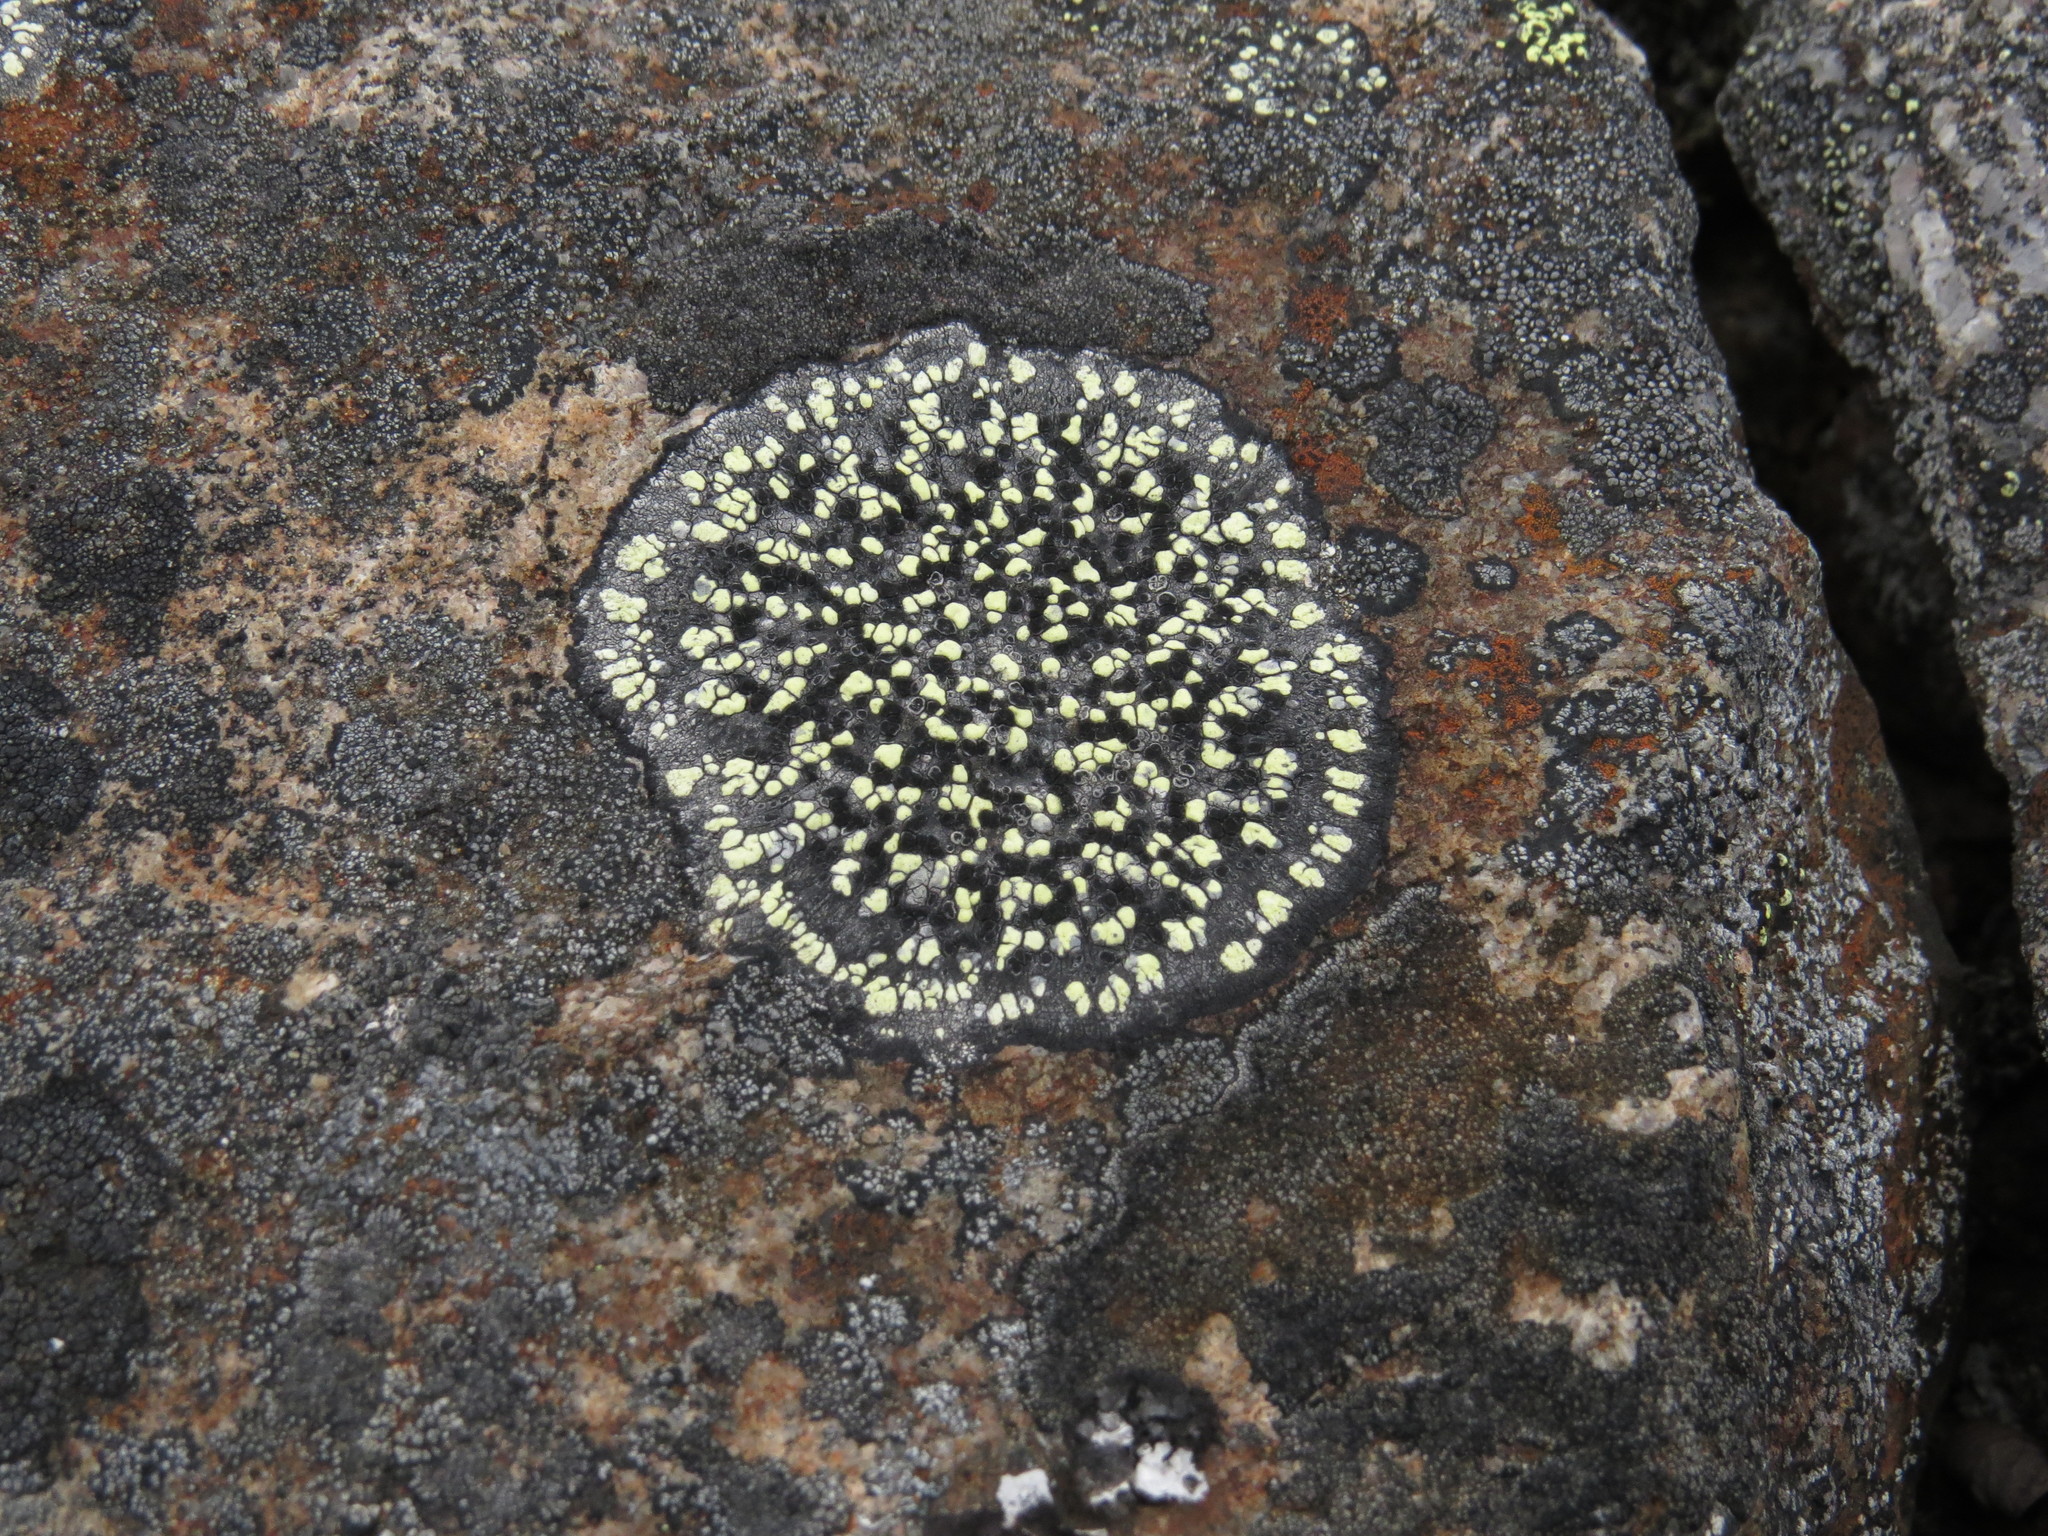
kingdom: Fungi
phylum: Ascomycota
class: Lecanoromycetes
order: Rhizocarpales
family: Rhizocarpaceae
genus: Rhizocarpon
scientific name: Rhizocarpon geographicum
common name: Yellow map lichen
